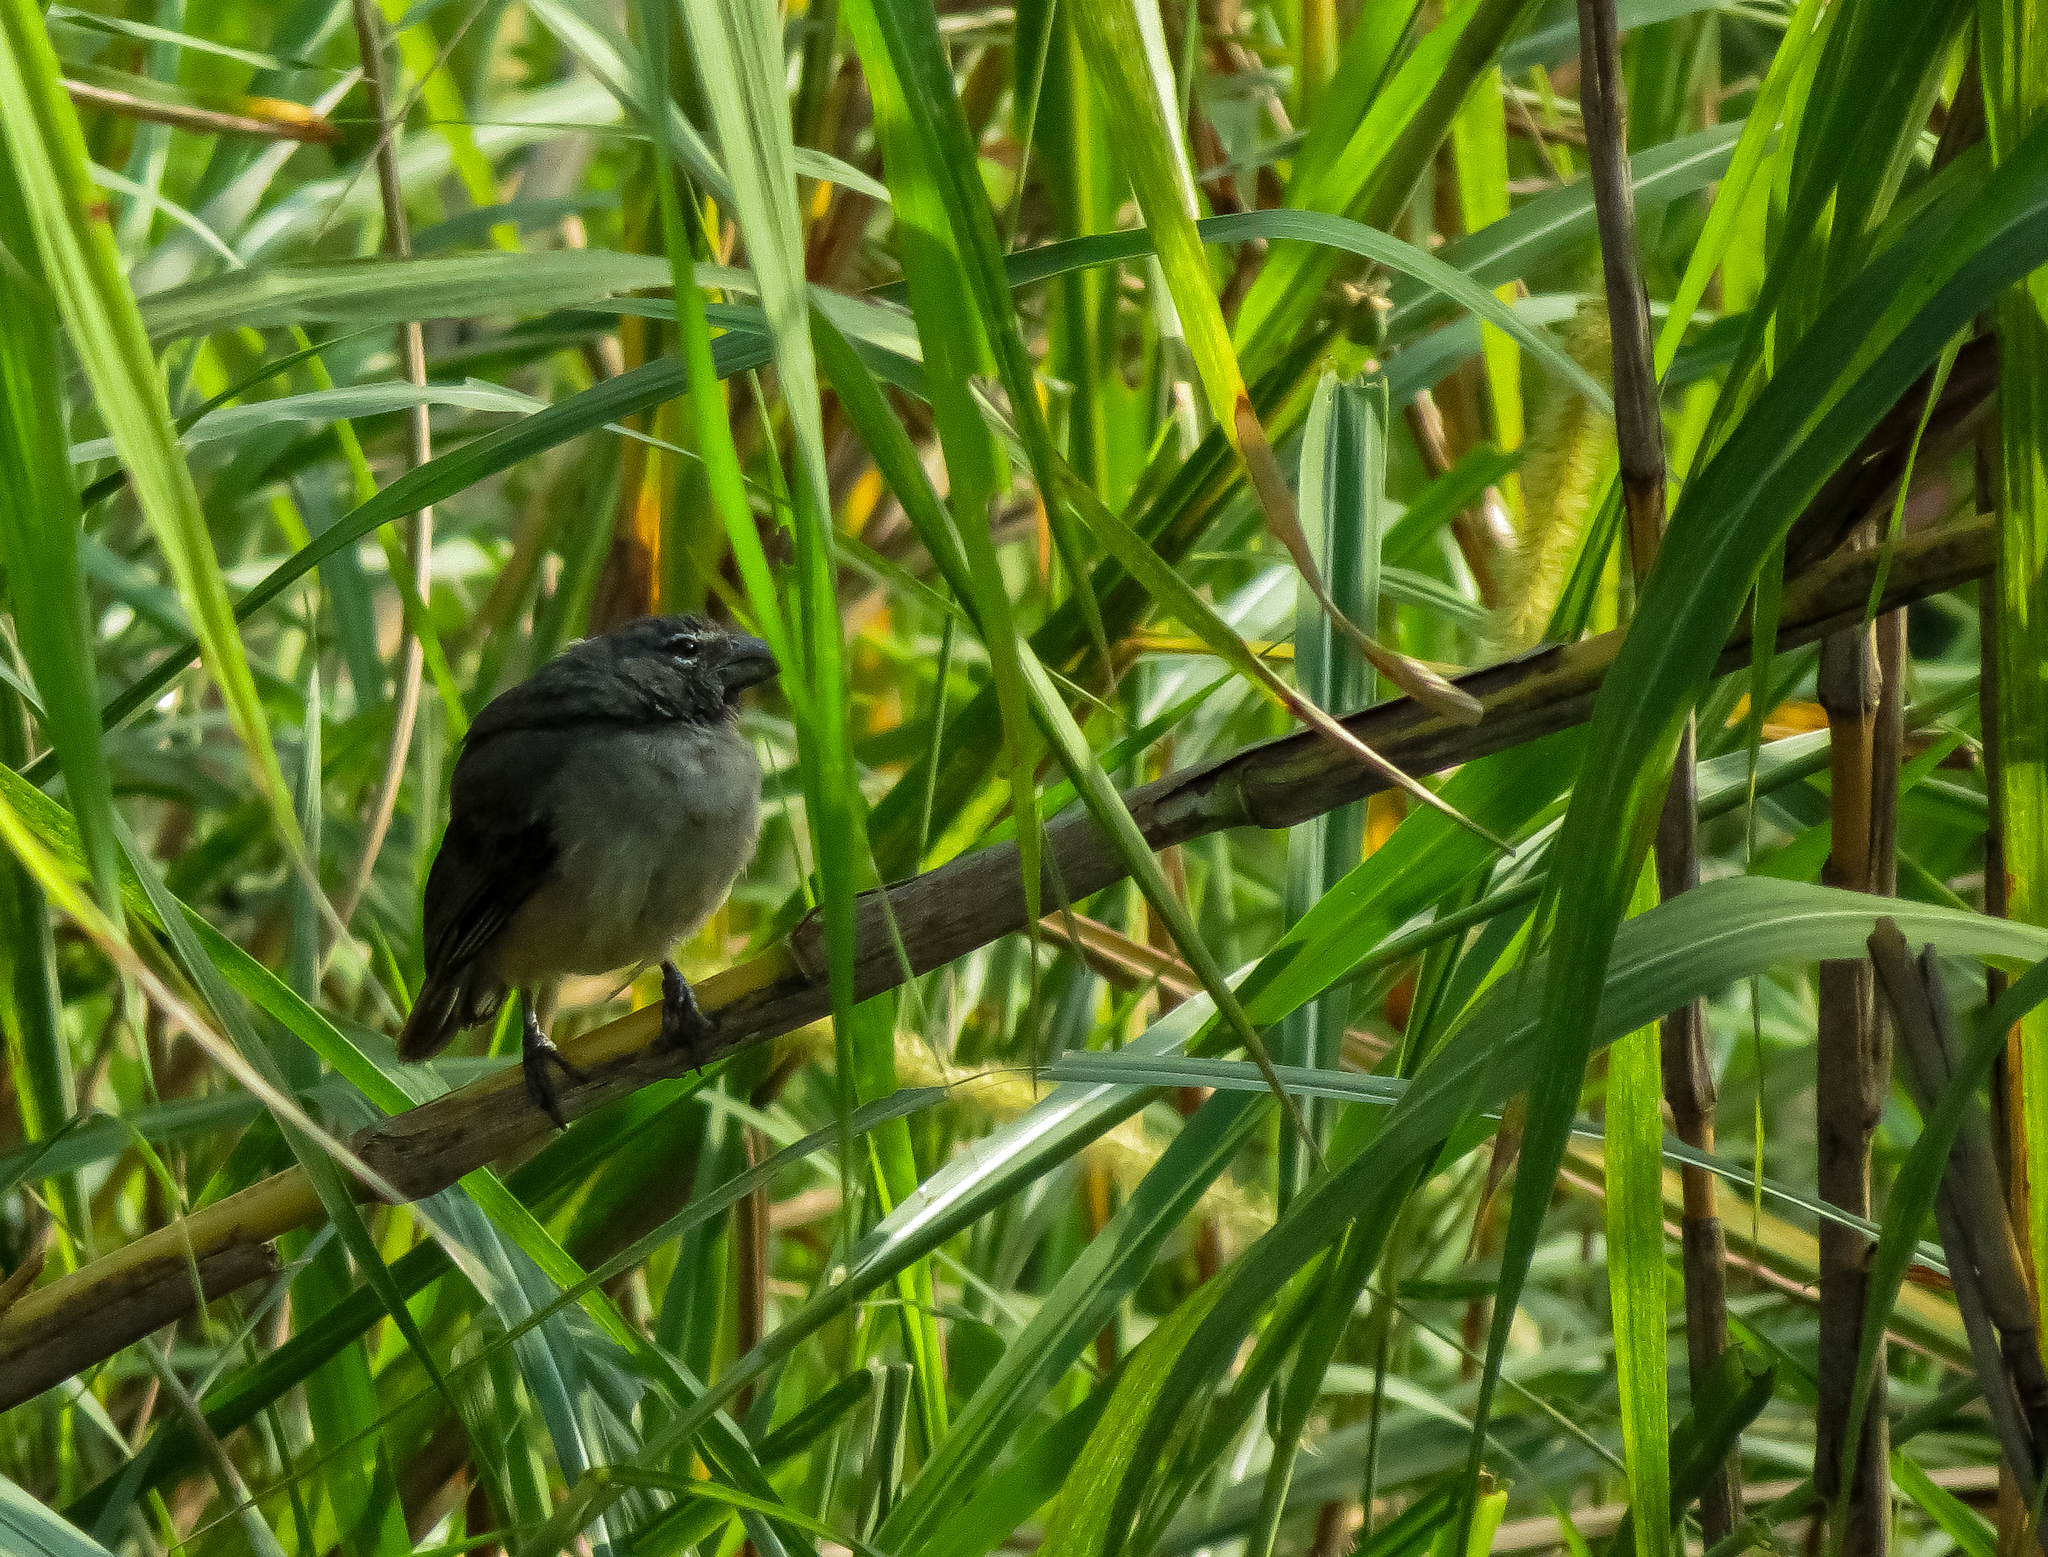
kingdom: Animalia
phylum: Chordata
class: Aves
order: Passeriformes
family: Thraupidae
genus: Saltator
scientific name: Saltator olivascens
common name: Caribbean grey saltator
